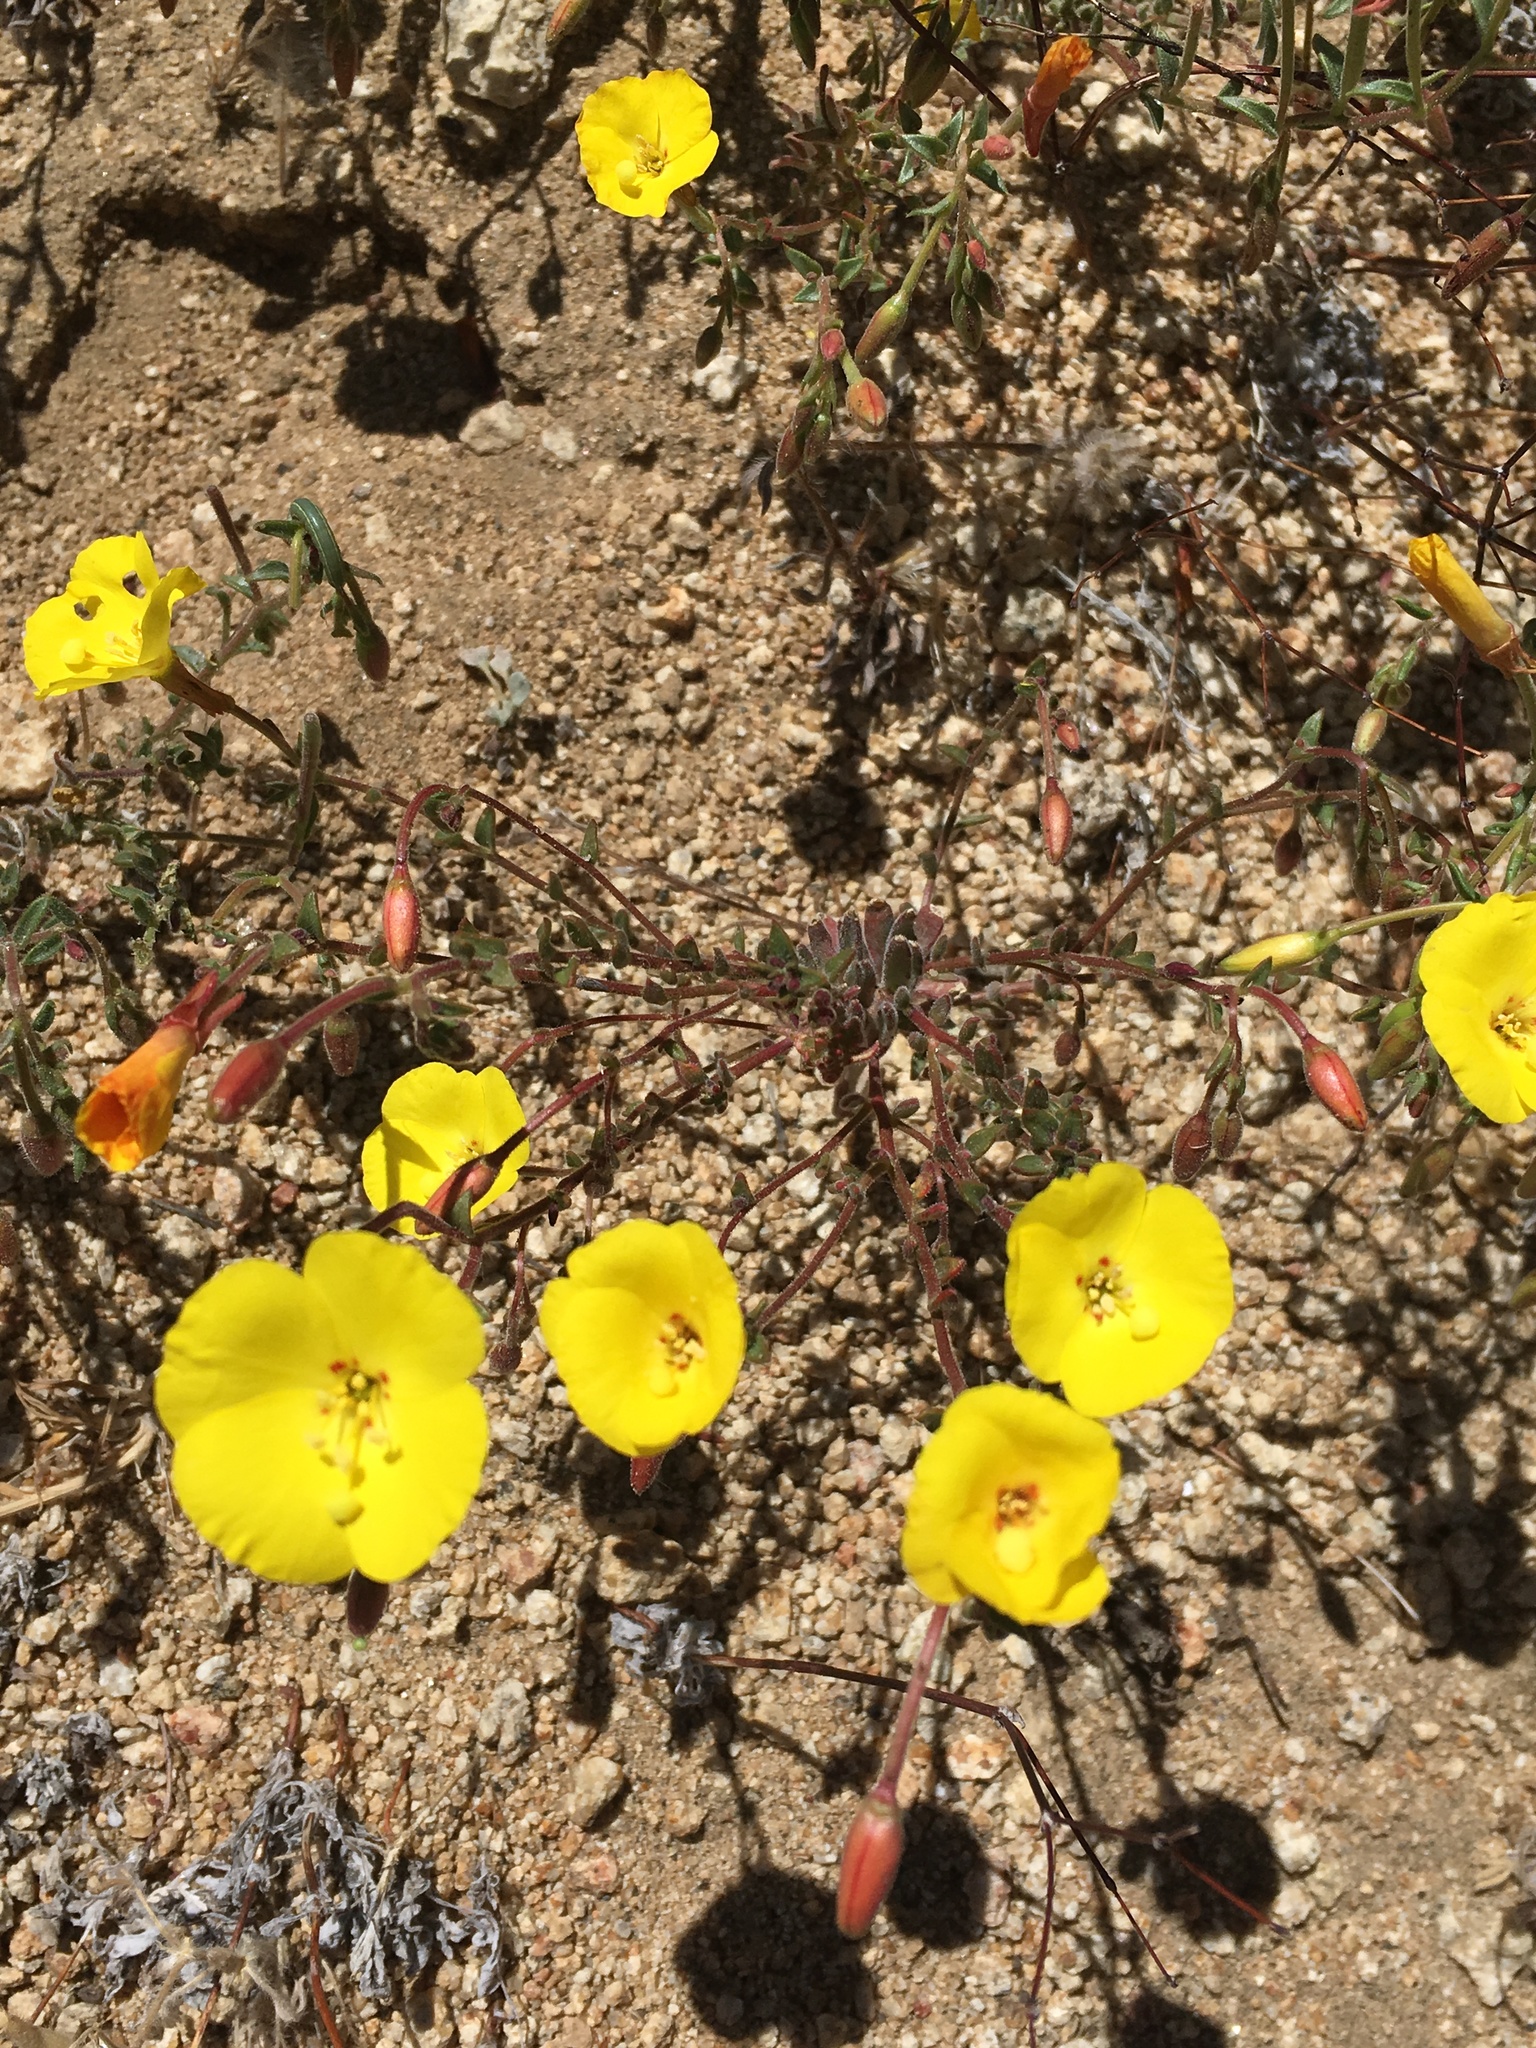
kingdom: Plantae
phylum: Tracheophyta
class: Magnoliopsida
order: Myrtales
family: Onagraceae
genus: Camissonia
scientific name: Camissonia kernensis
